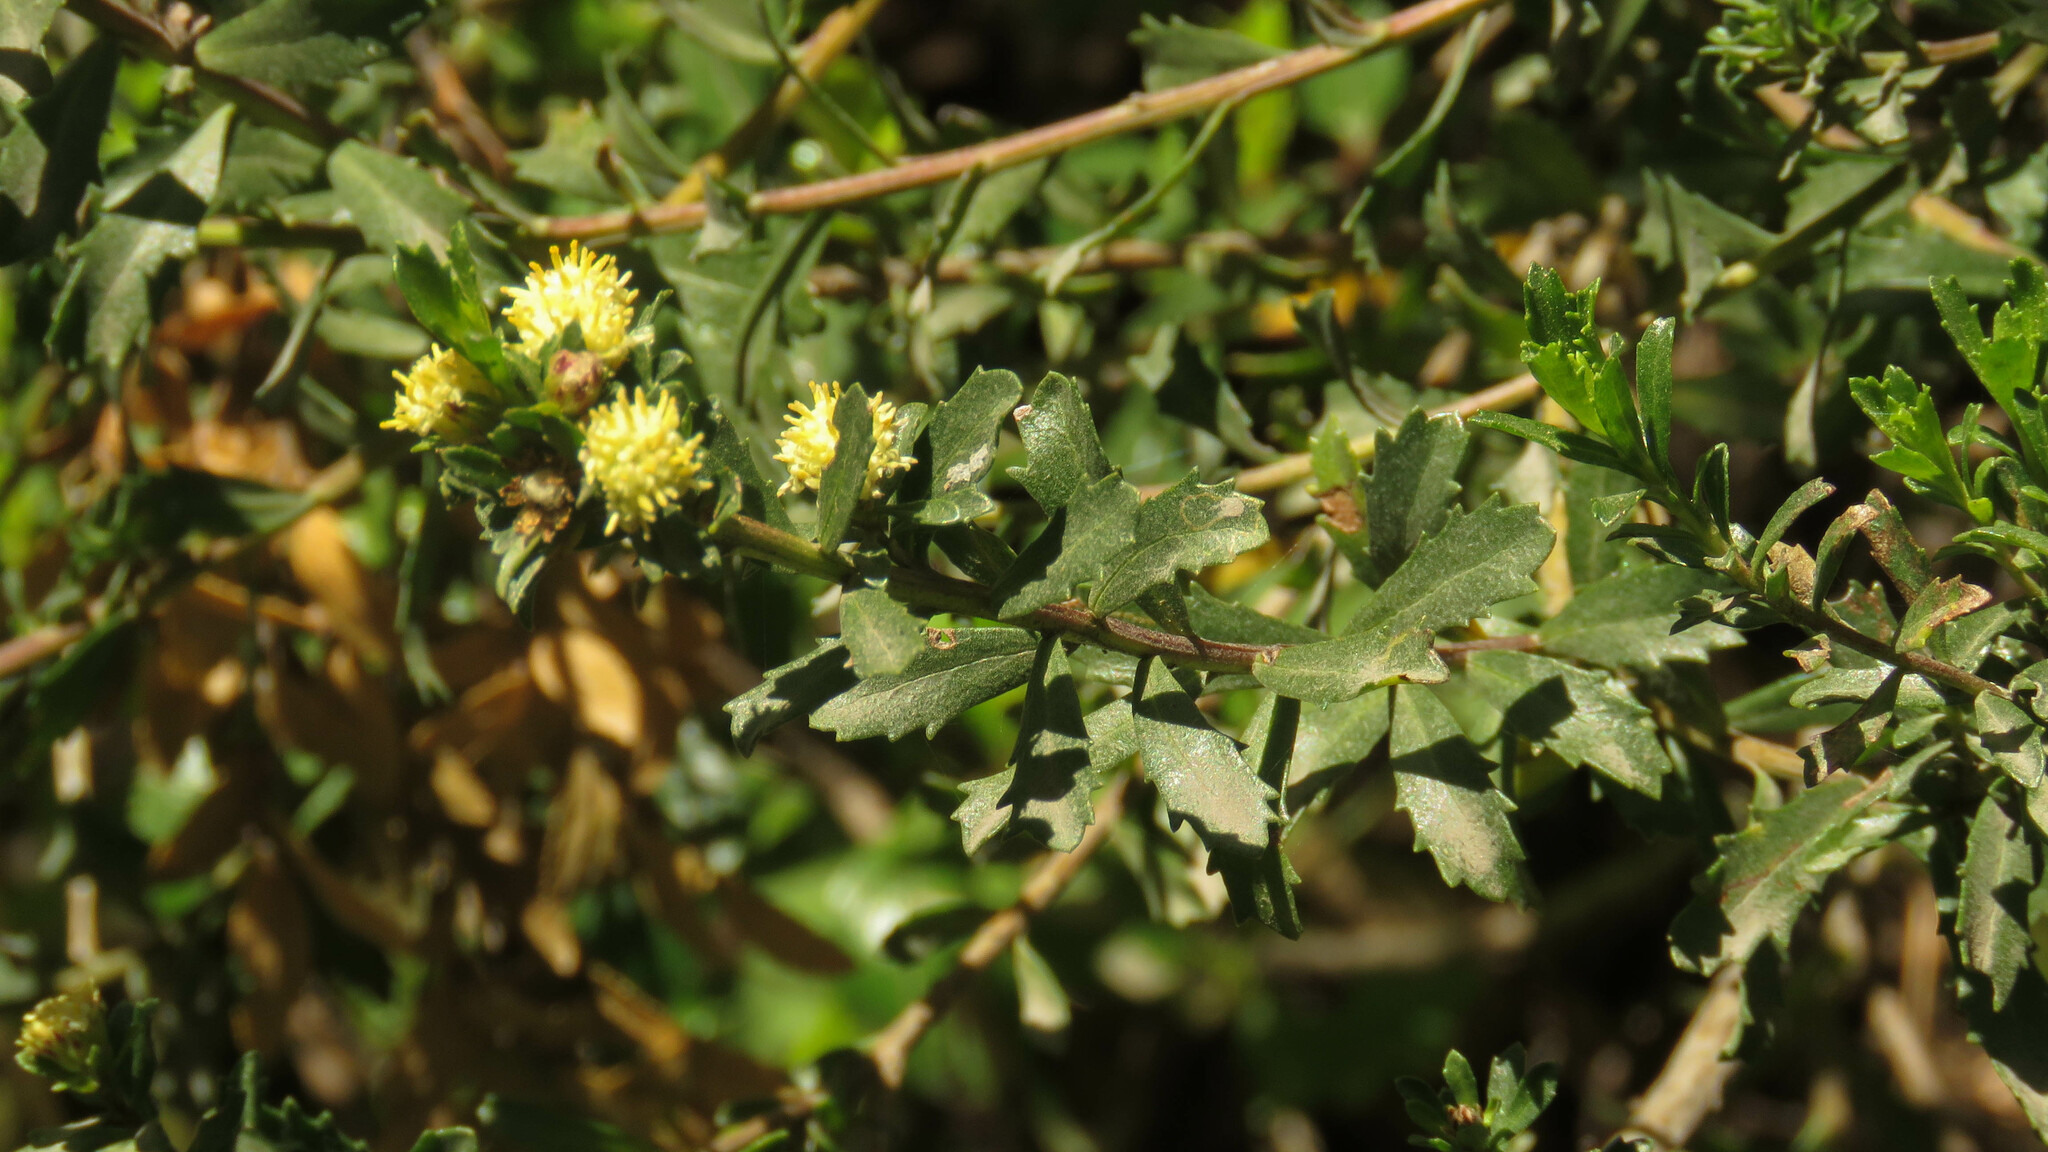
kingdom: Plantae
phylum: Tracheophyta
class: Magnoliopsida
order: Asterales
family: Asteraceae
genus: Baccharis
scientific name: Baccharis neaei
